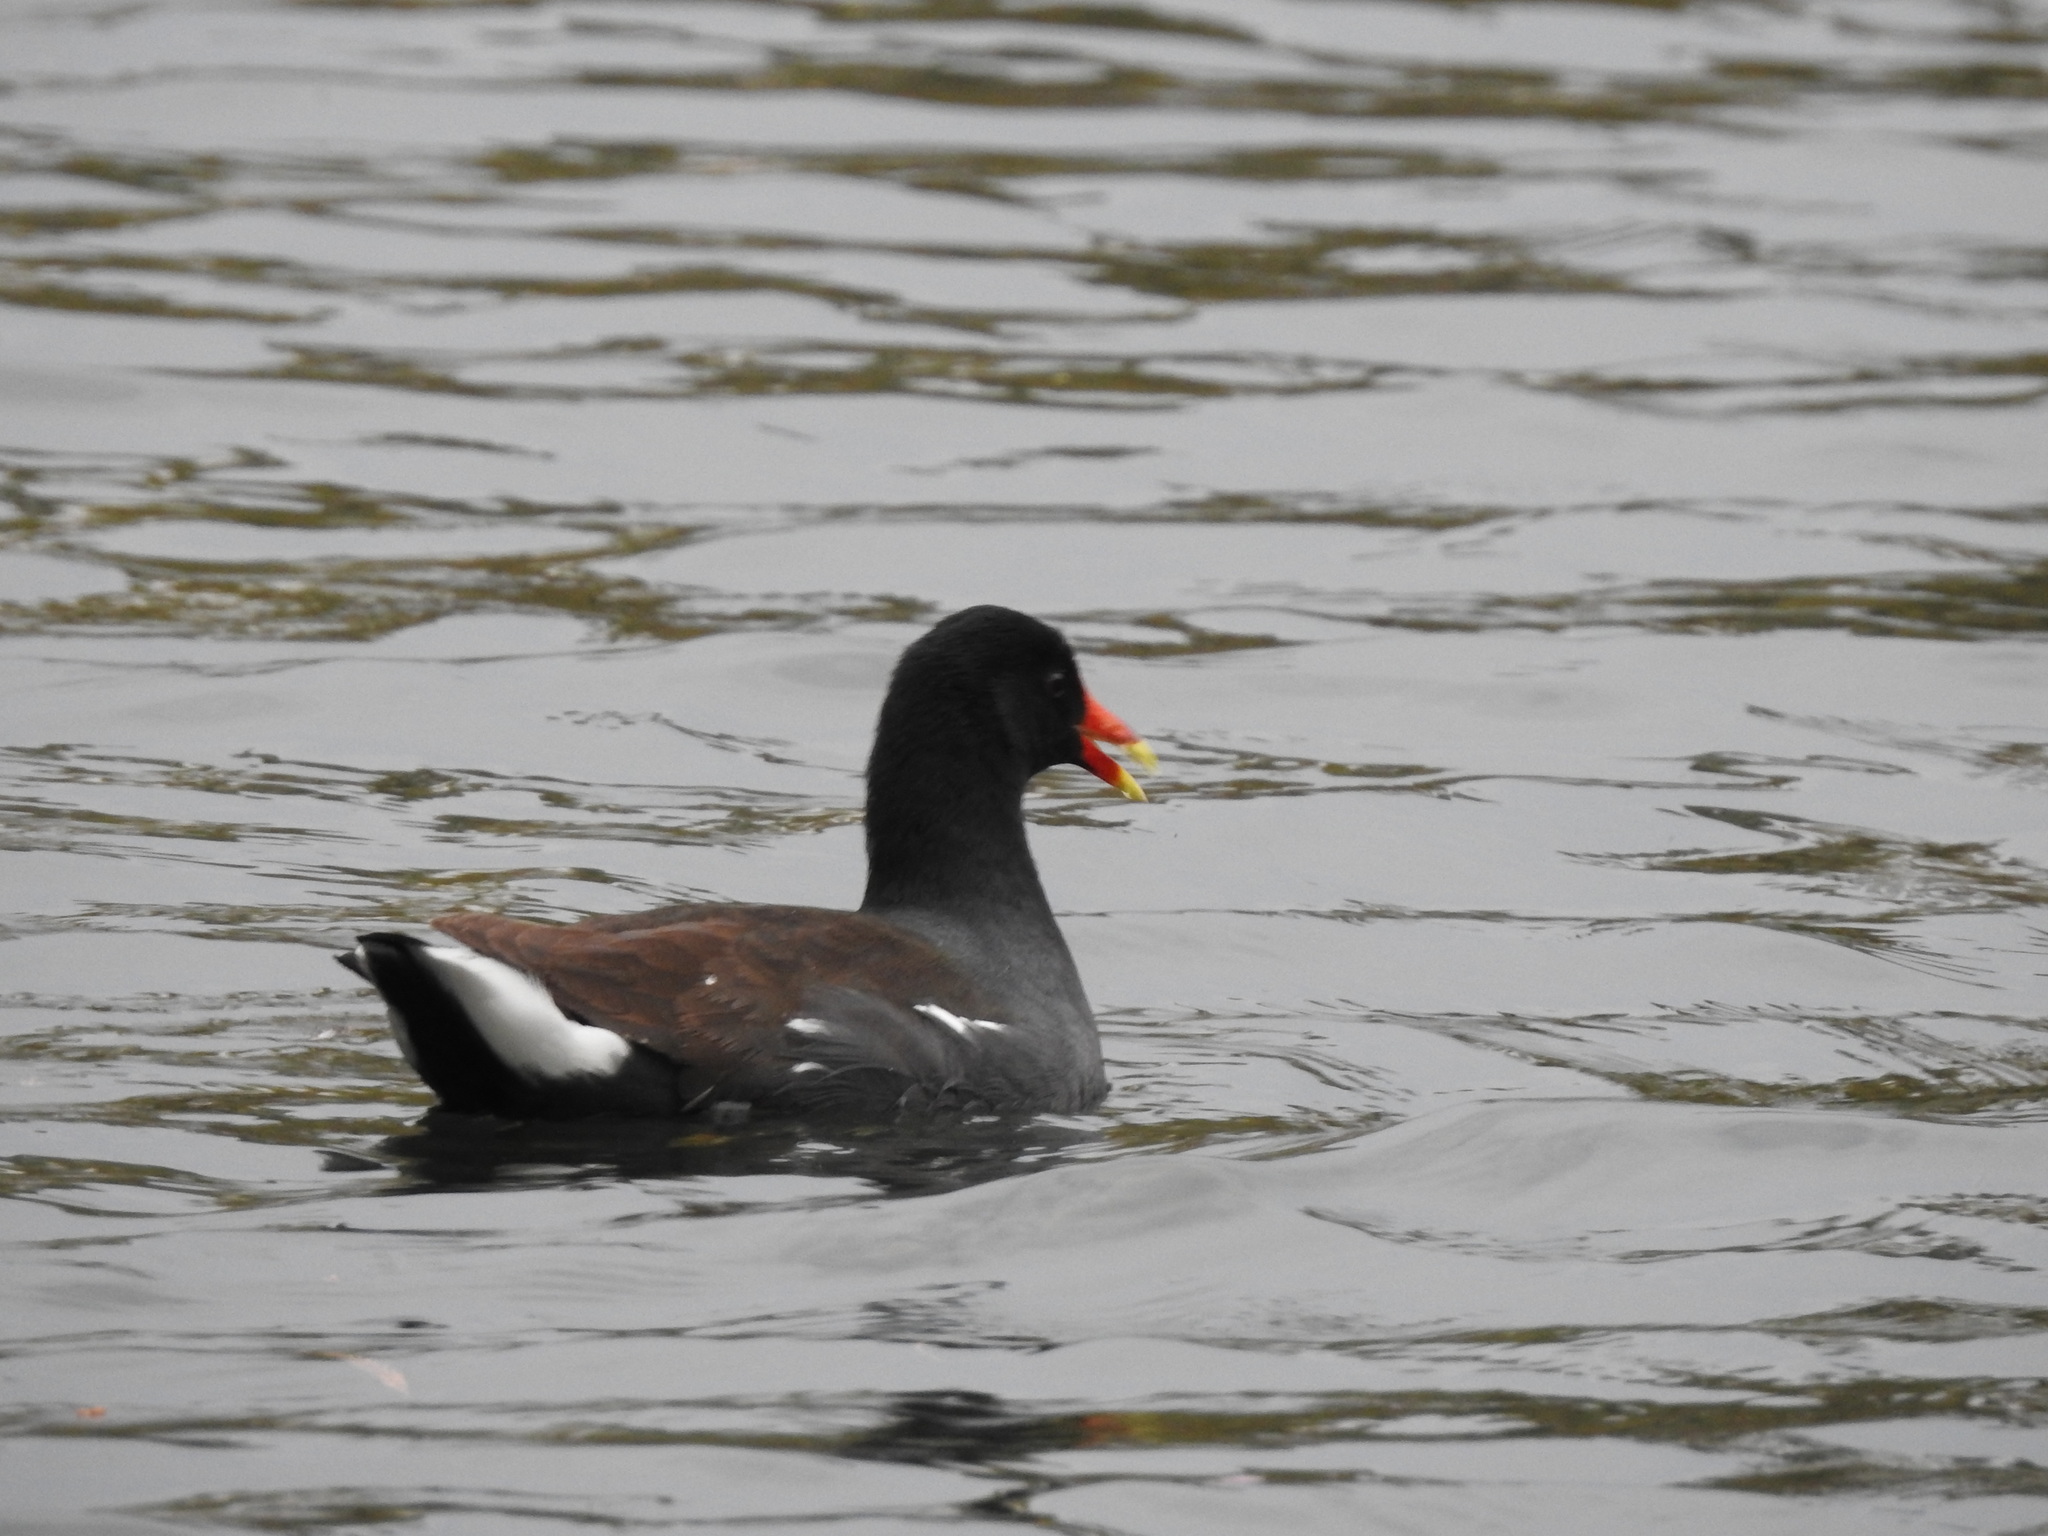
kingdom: Animalia
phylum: Chordata
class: Aves
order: Gruiformes
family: Rallidae
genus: Gallinula
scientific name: Gallinula chloropus
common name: Common moorhen
